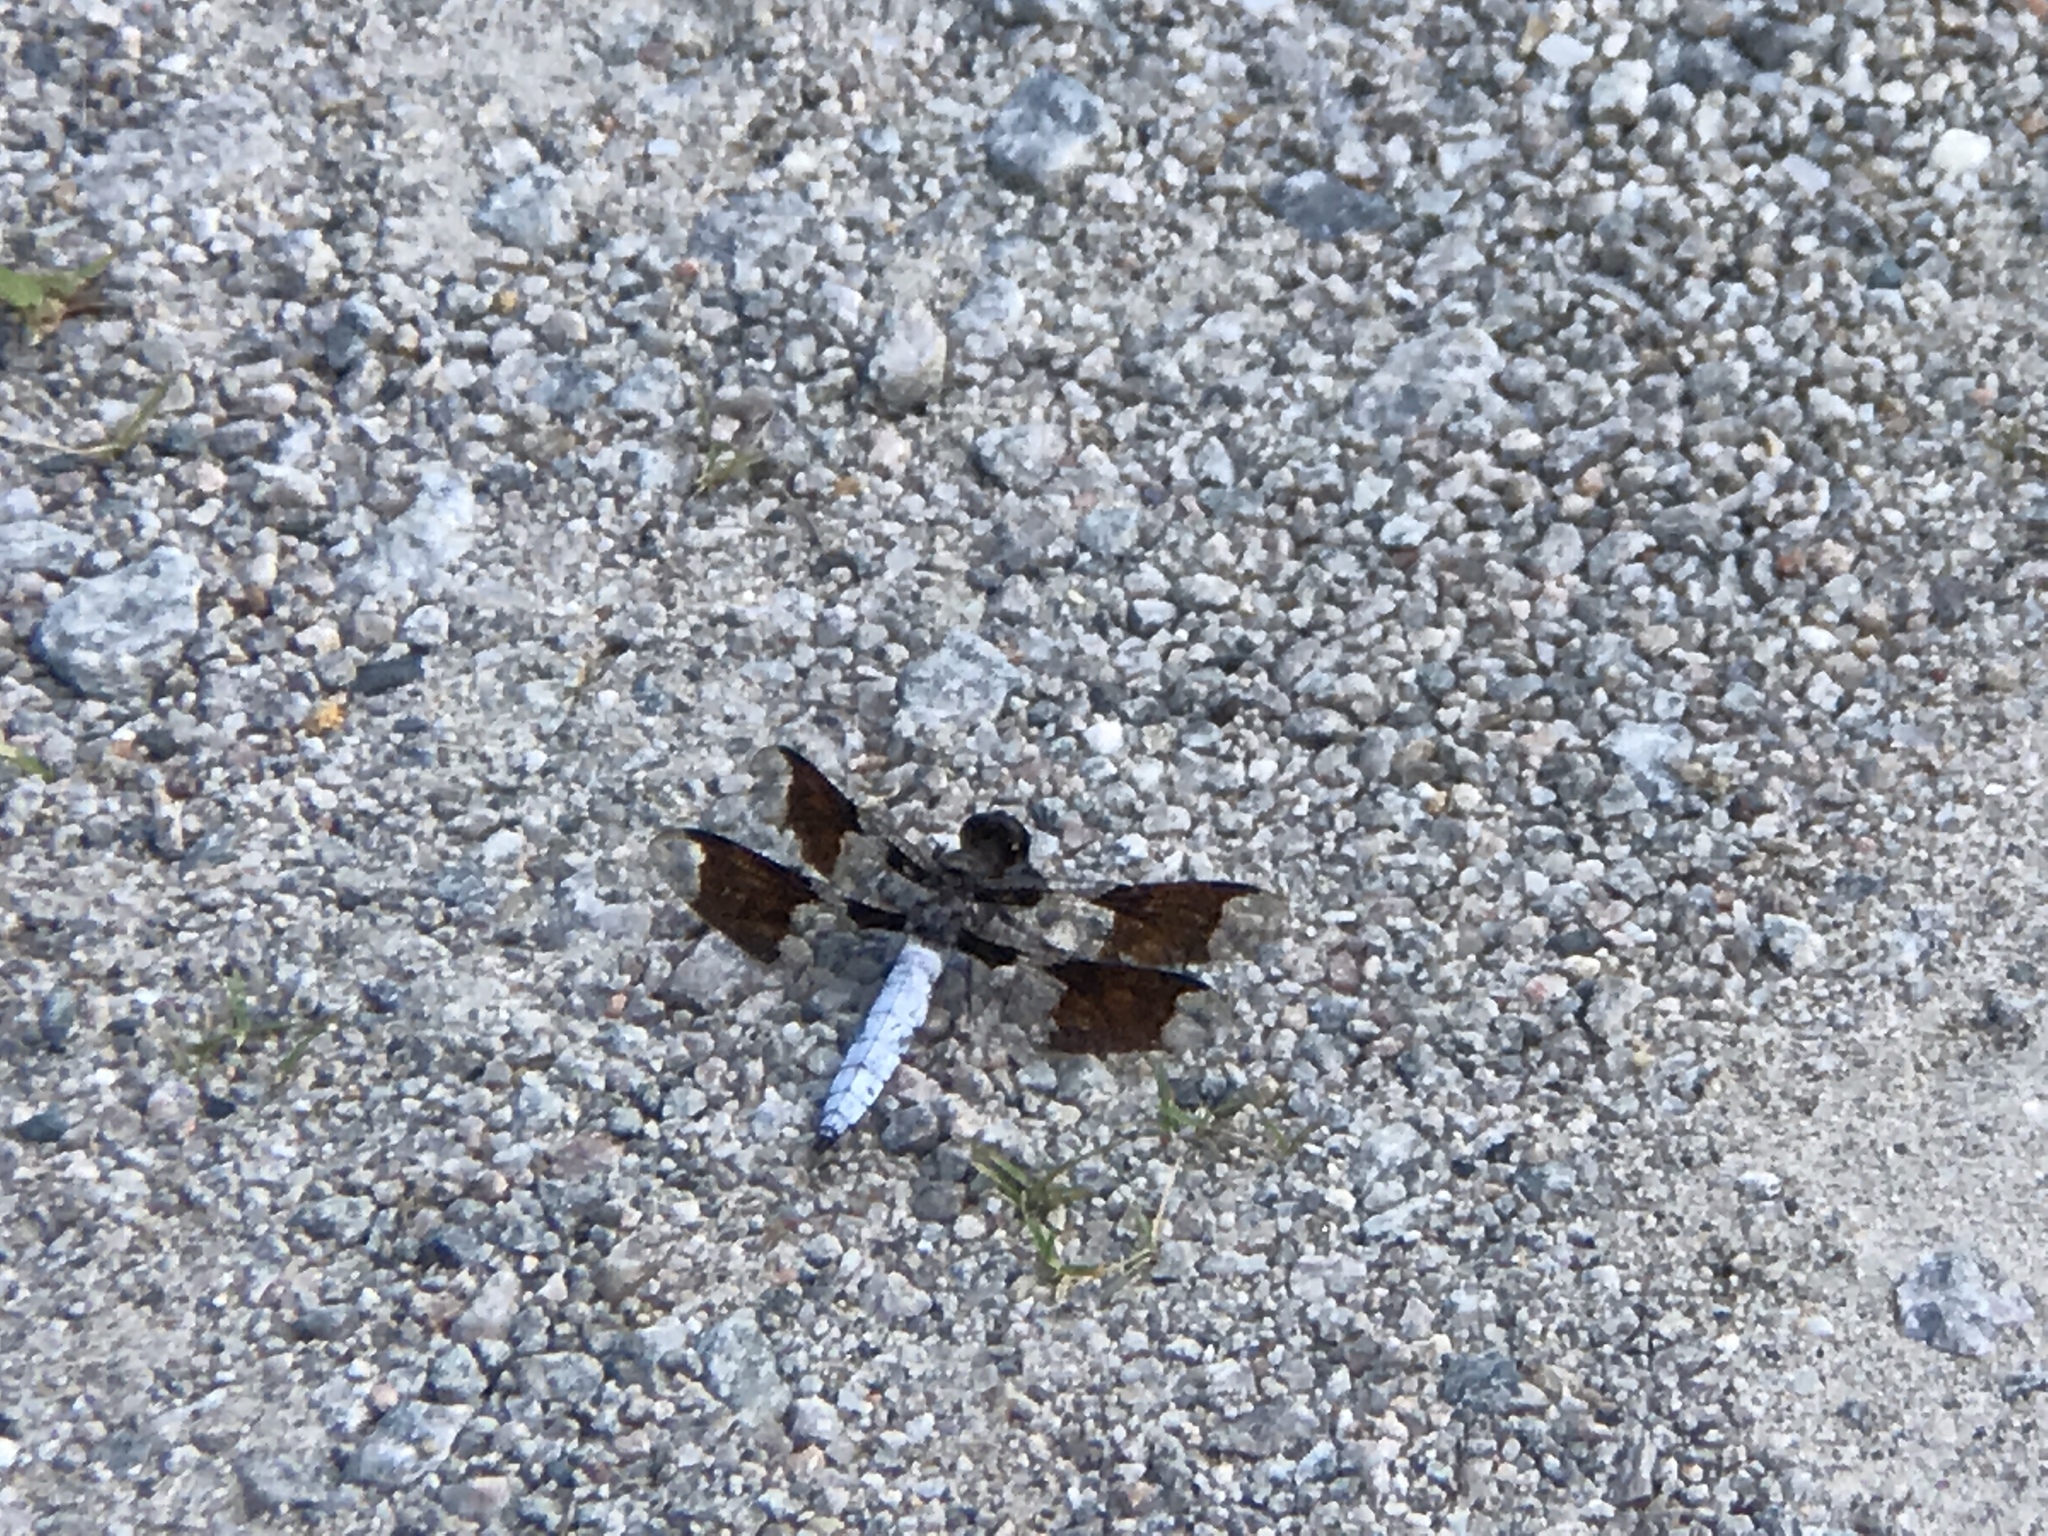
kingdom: Animalia
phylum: Arthropoda
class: Insecta
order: Odonata
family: Libellulidae
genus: Plathemis
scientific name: Plathemis lydia
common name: Common whitetail
